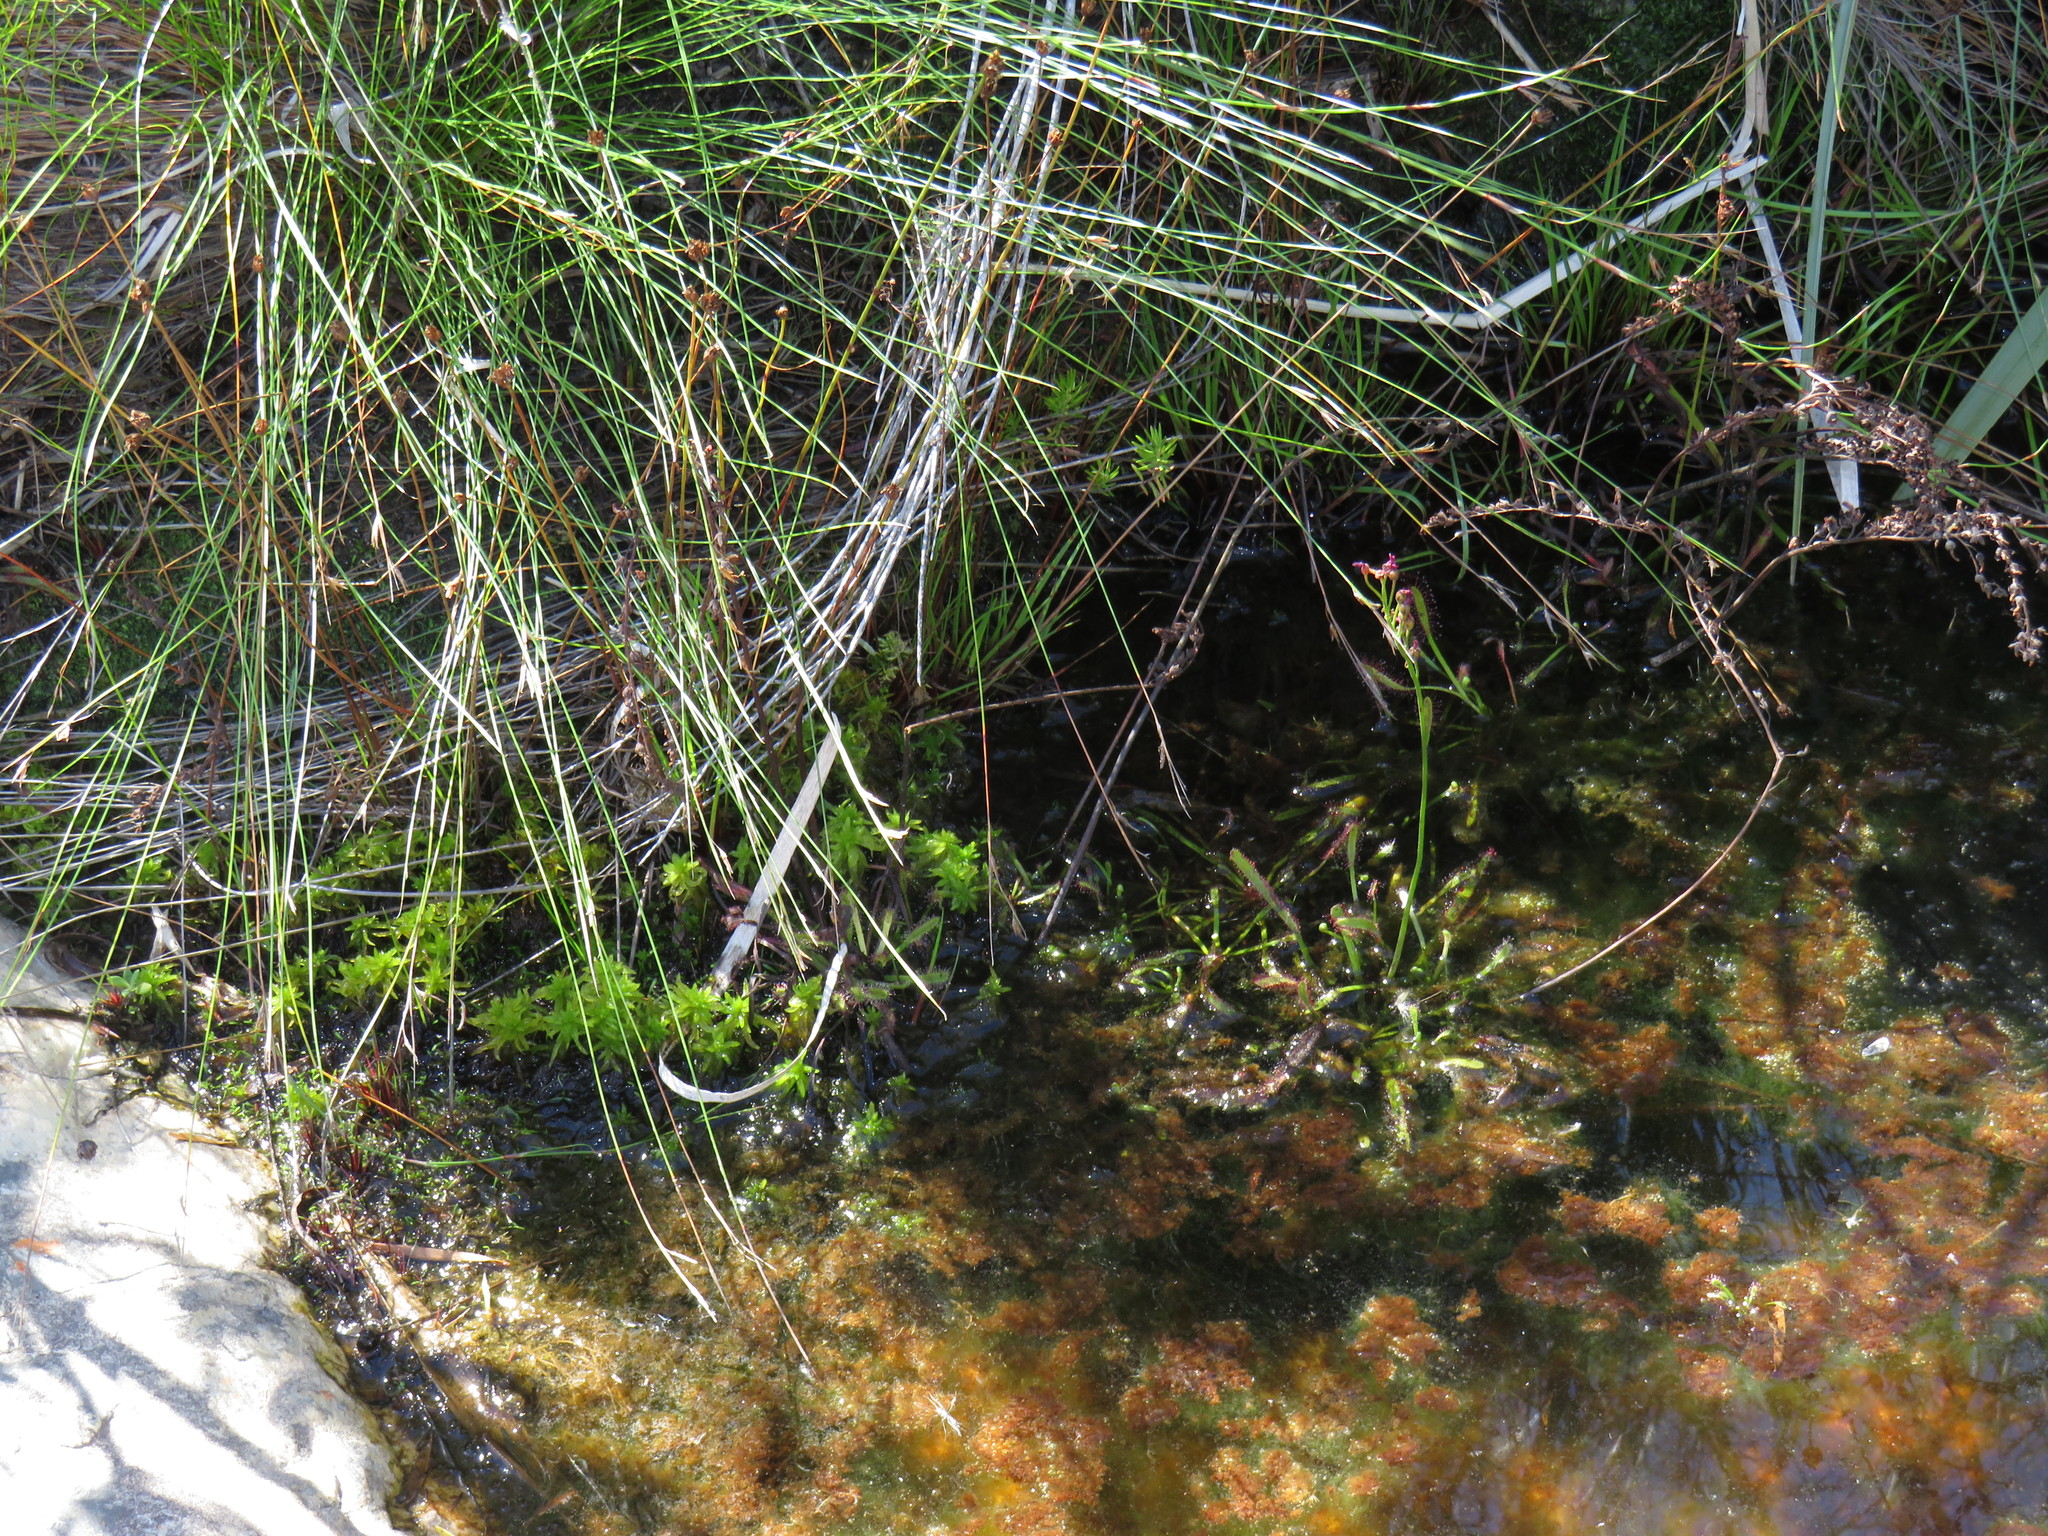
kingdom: Plantae
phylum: Tracheophyta
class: Magnoliopsida
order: Caryophyllales
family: Droseraceae
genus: Drosera
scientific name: Drosera capensis
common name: Cape sundew
